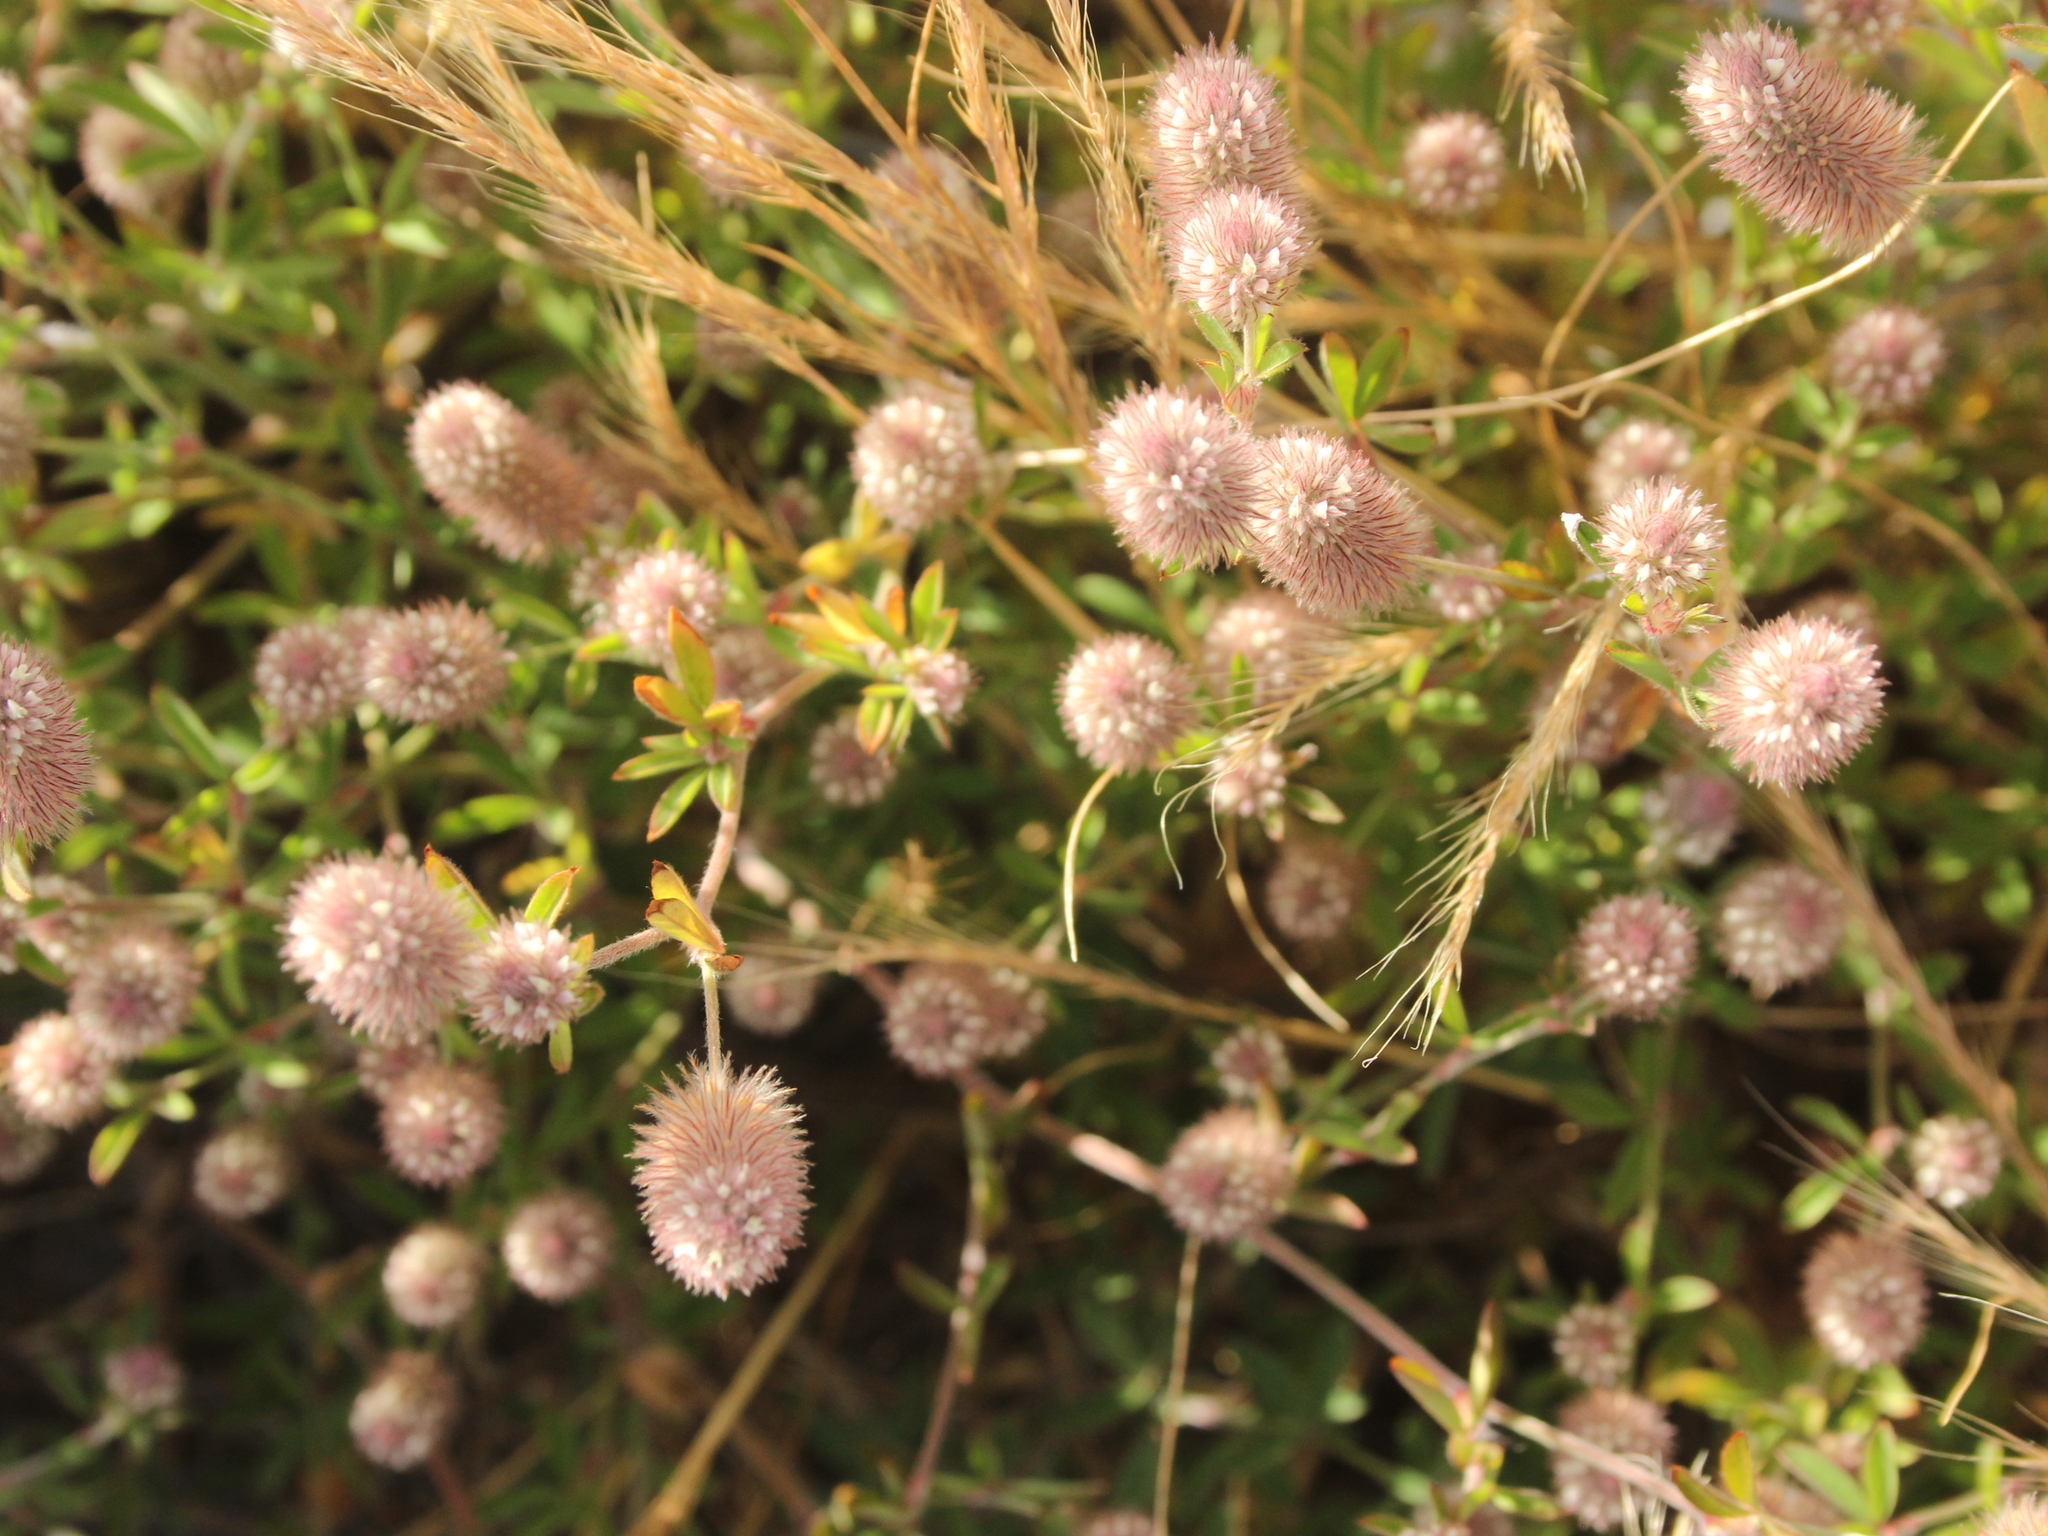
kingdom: Plantae
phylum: Tracheophyta
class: Magnoliopsida
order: Fabales
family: Fabaceae
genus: Trifolium
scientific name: Trifolium arvense
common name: Hare's-foot clover
